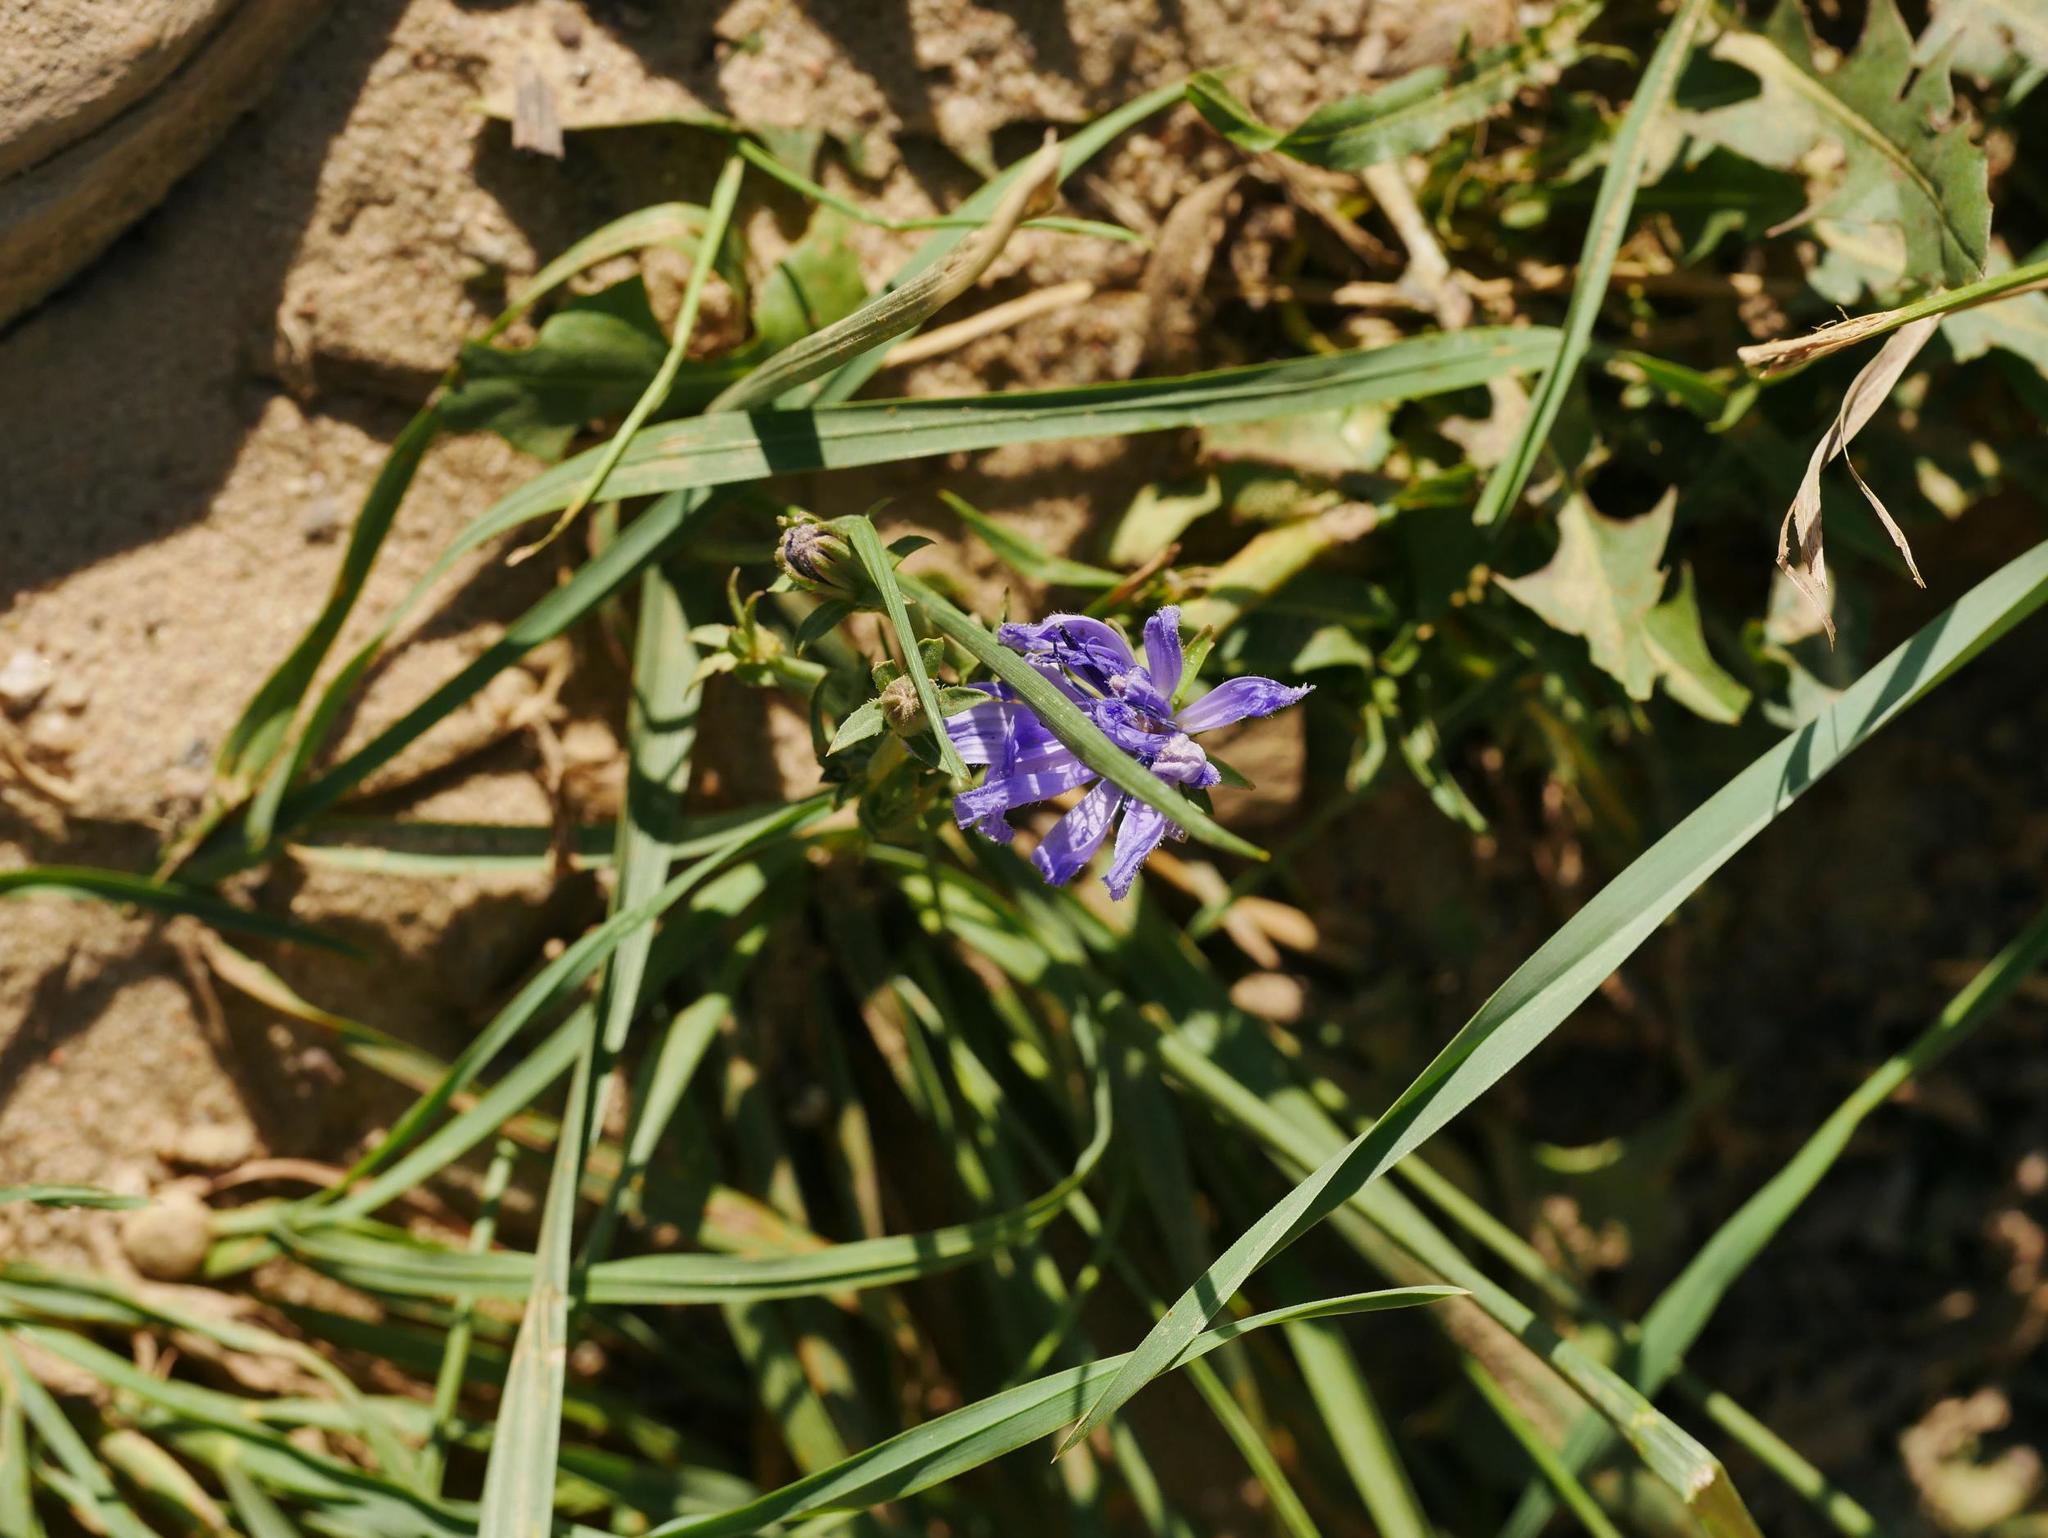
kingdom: Plantae
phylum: Tracheophyta
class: Magnoliopsida
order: Asterales
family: Asteraceae
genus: Cichorium
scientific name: Cichorium intybus
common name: Chicory
